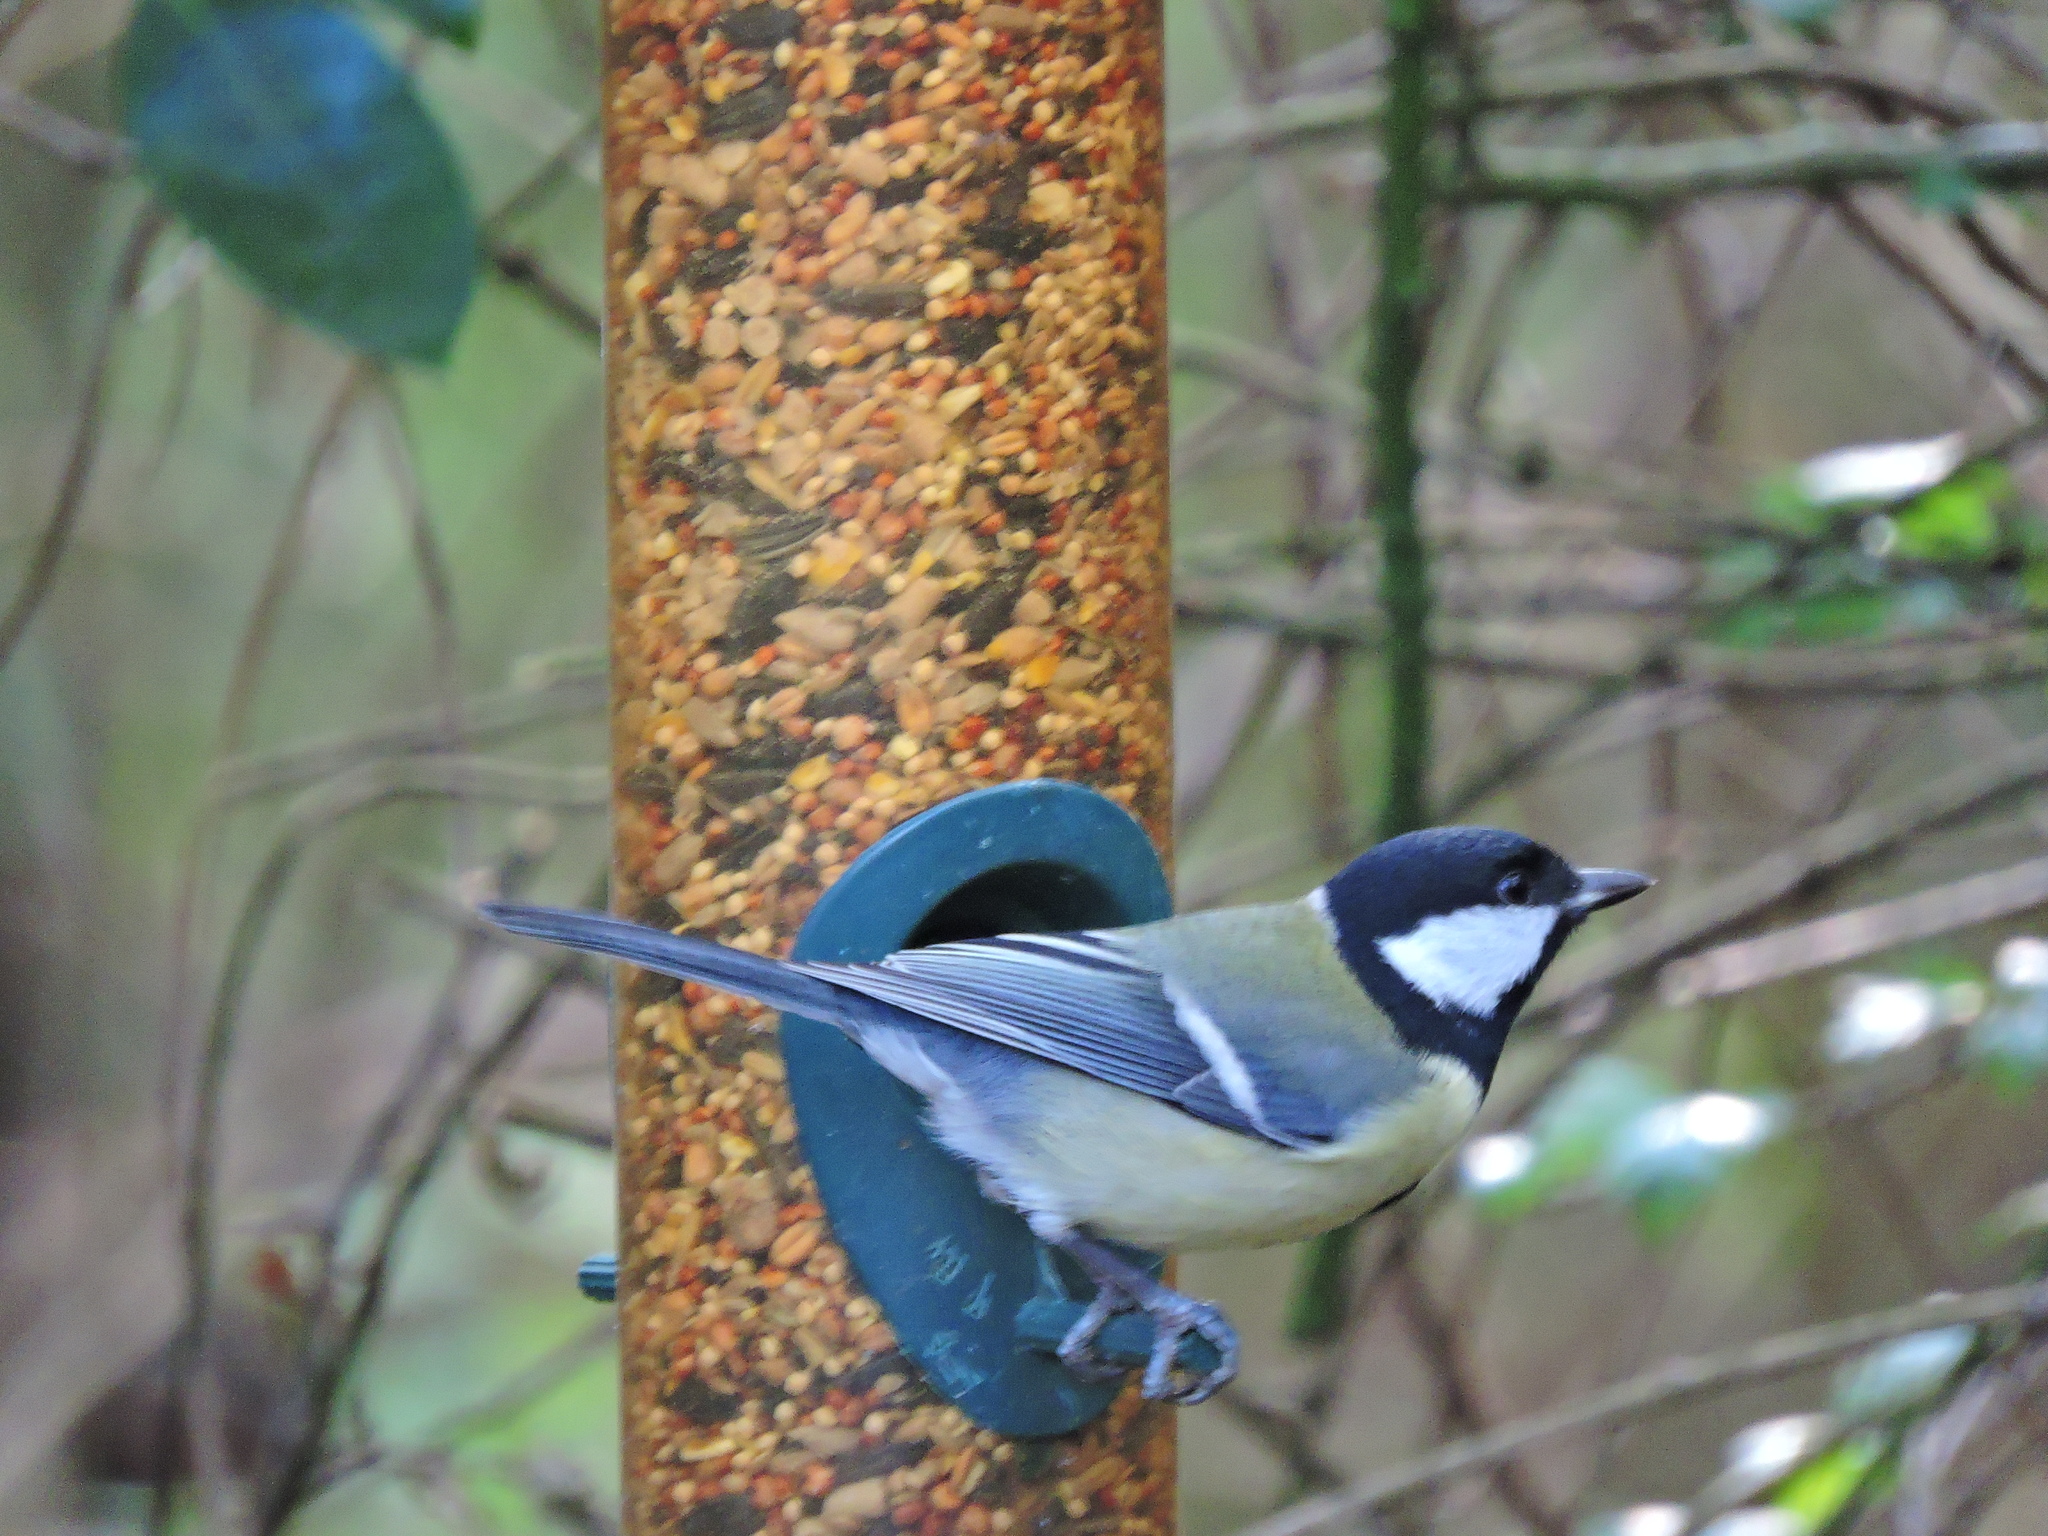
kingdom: Animalia
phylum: Chordata
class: Aves
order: Passeriformes
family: Paridae
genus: Parus
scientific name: Parus major
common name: Great tit
